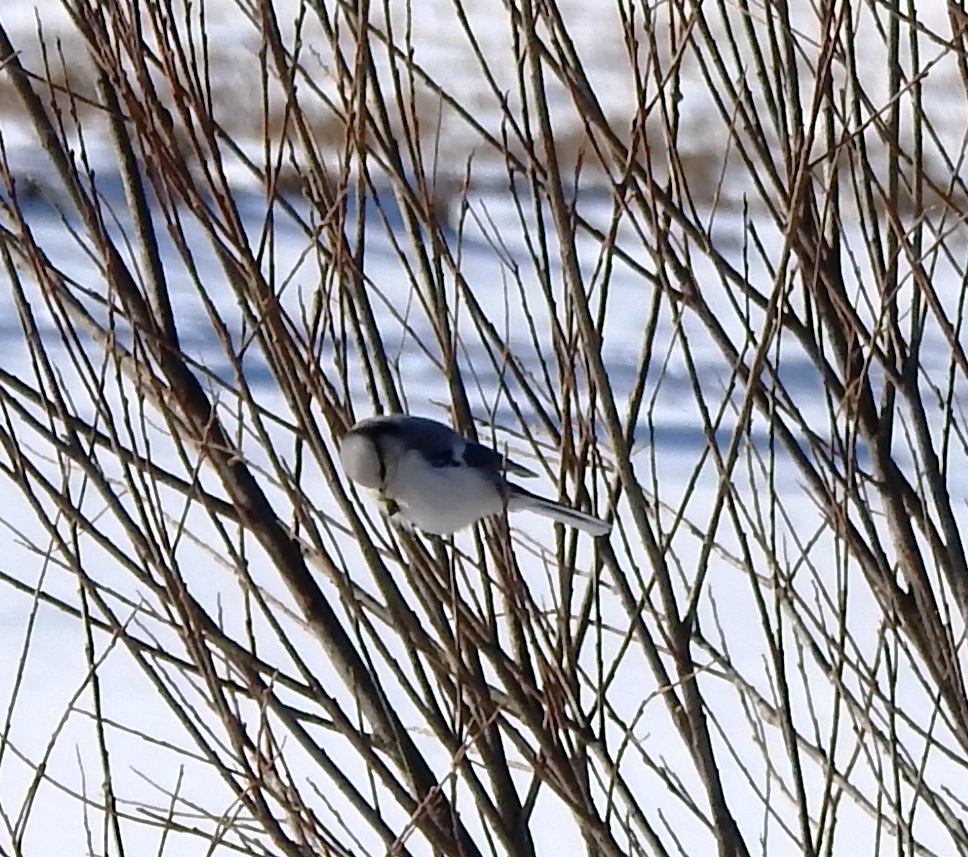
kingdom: Animalia
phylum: Chordata
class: Aves
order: Passeriformes
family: Paridae
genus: Cyanistes
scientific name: Cyanistes cyanus
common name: Azure tit
